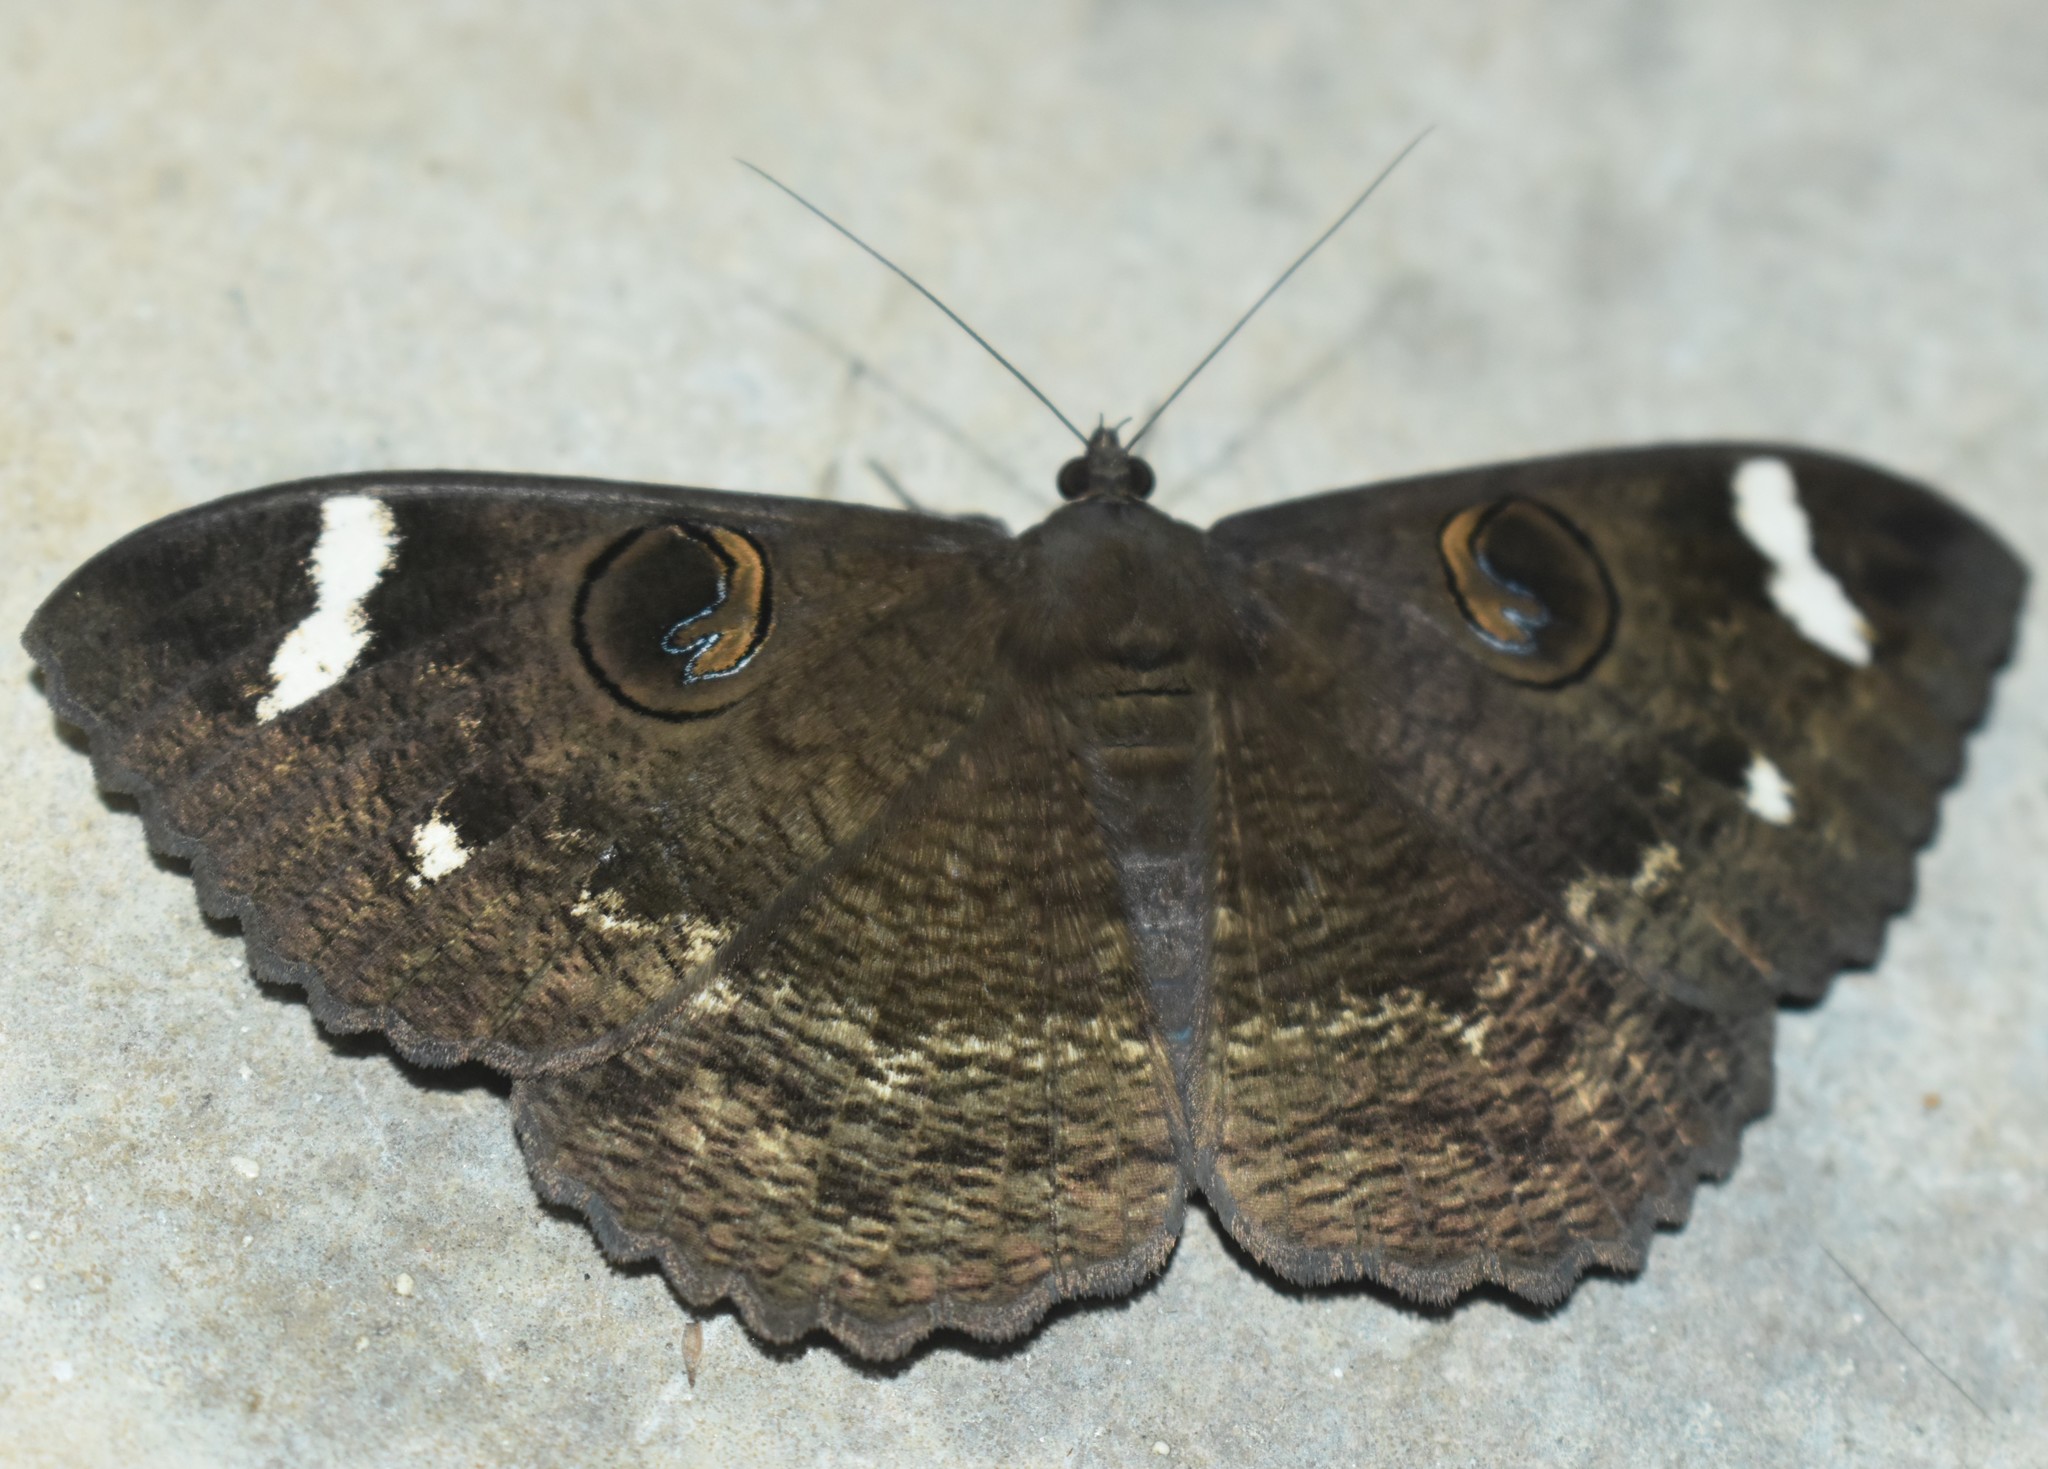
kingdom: Animalia
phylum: Arthropoda
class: Insecta
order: Lepidoptera
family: Erebidae
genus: Erebus
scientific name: Erebus hieroglyphica
